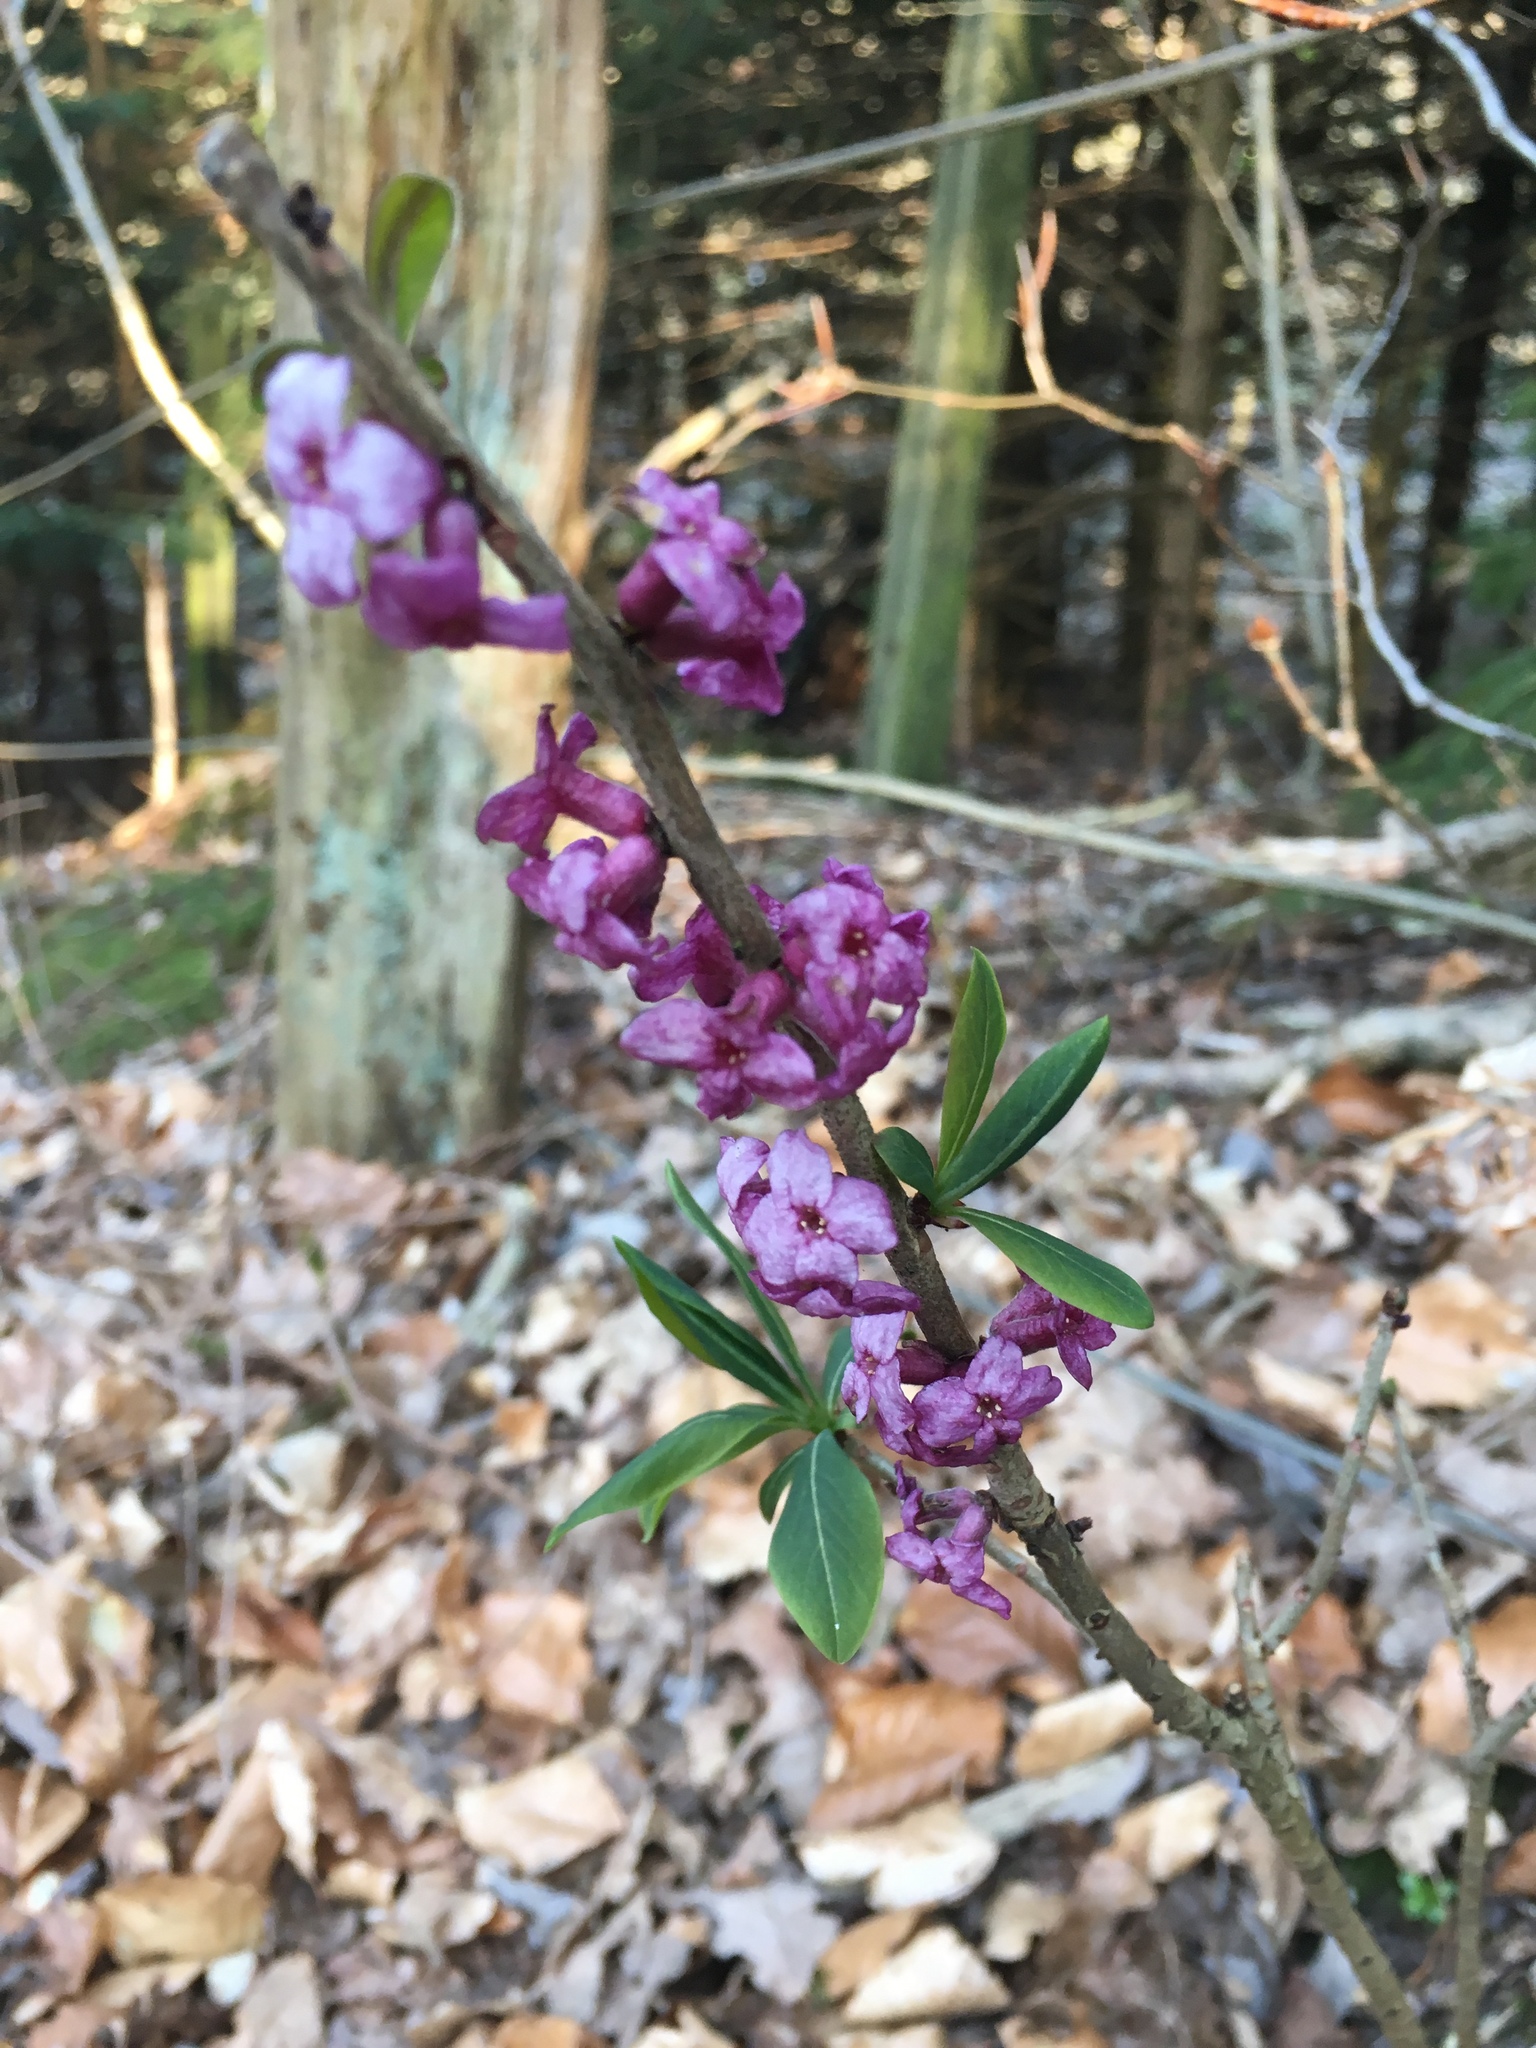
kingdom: Plantae
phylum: Tracheophyta
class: Magnoliopsida
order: Malvales
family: Thymelaeaceae
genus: Daphne
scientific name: Daphne mezereum
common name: Mezereon
